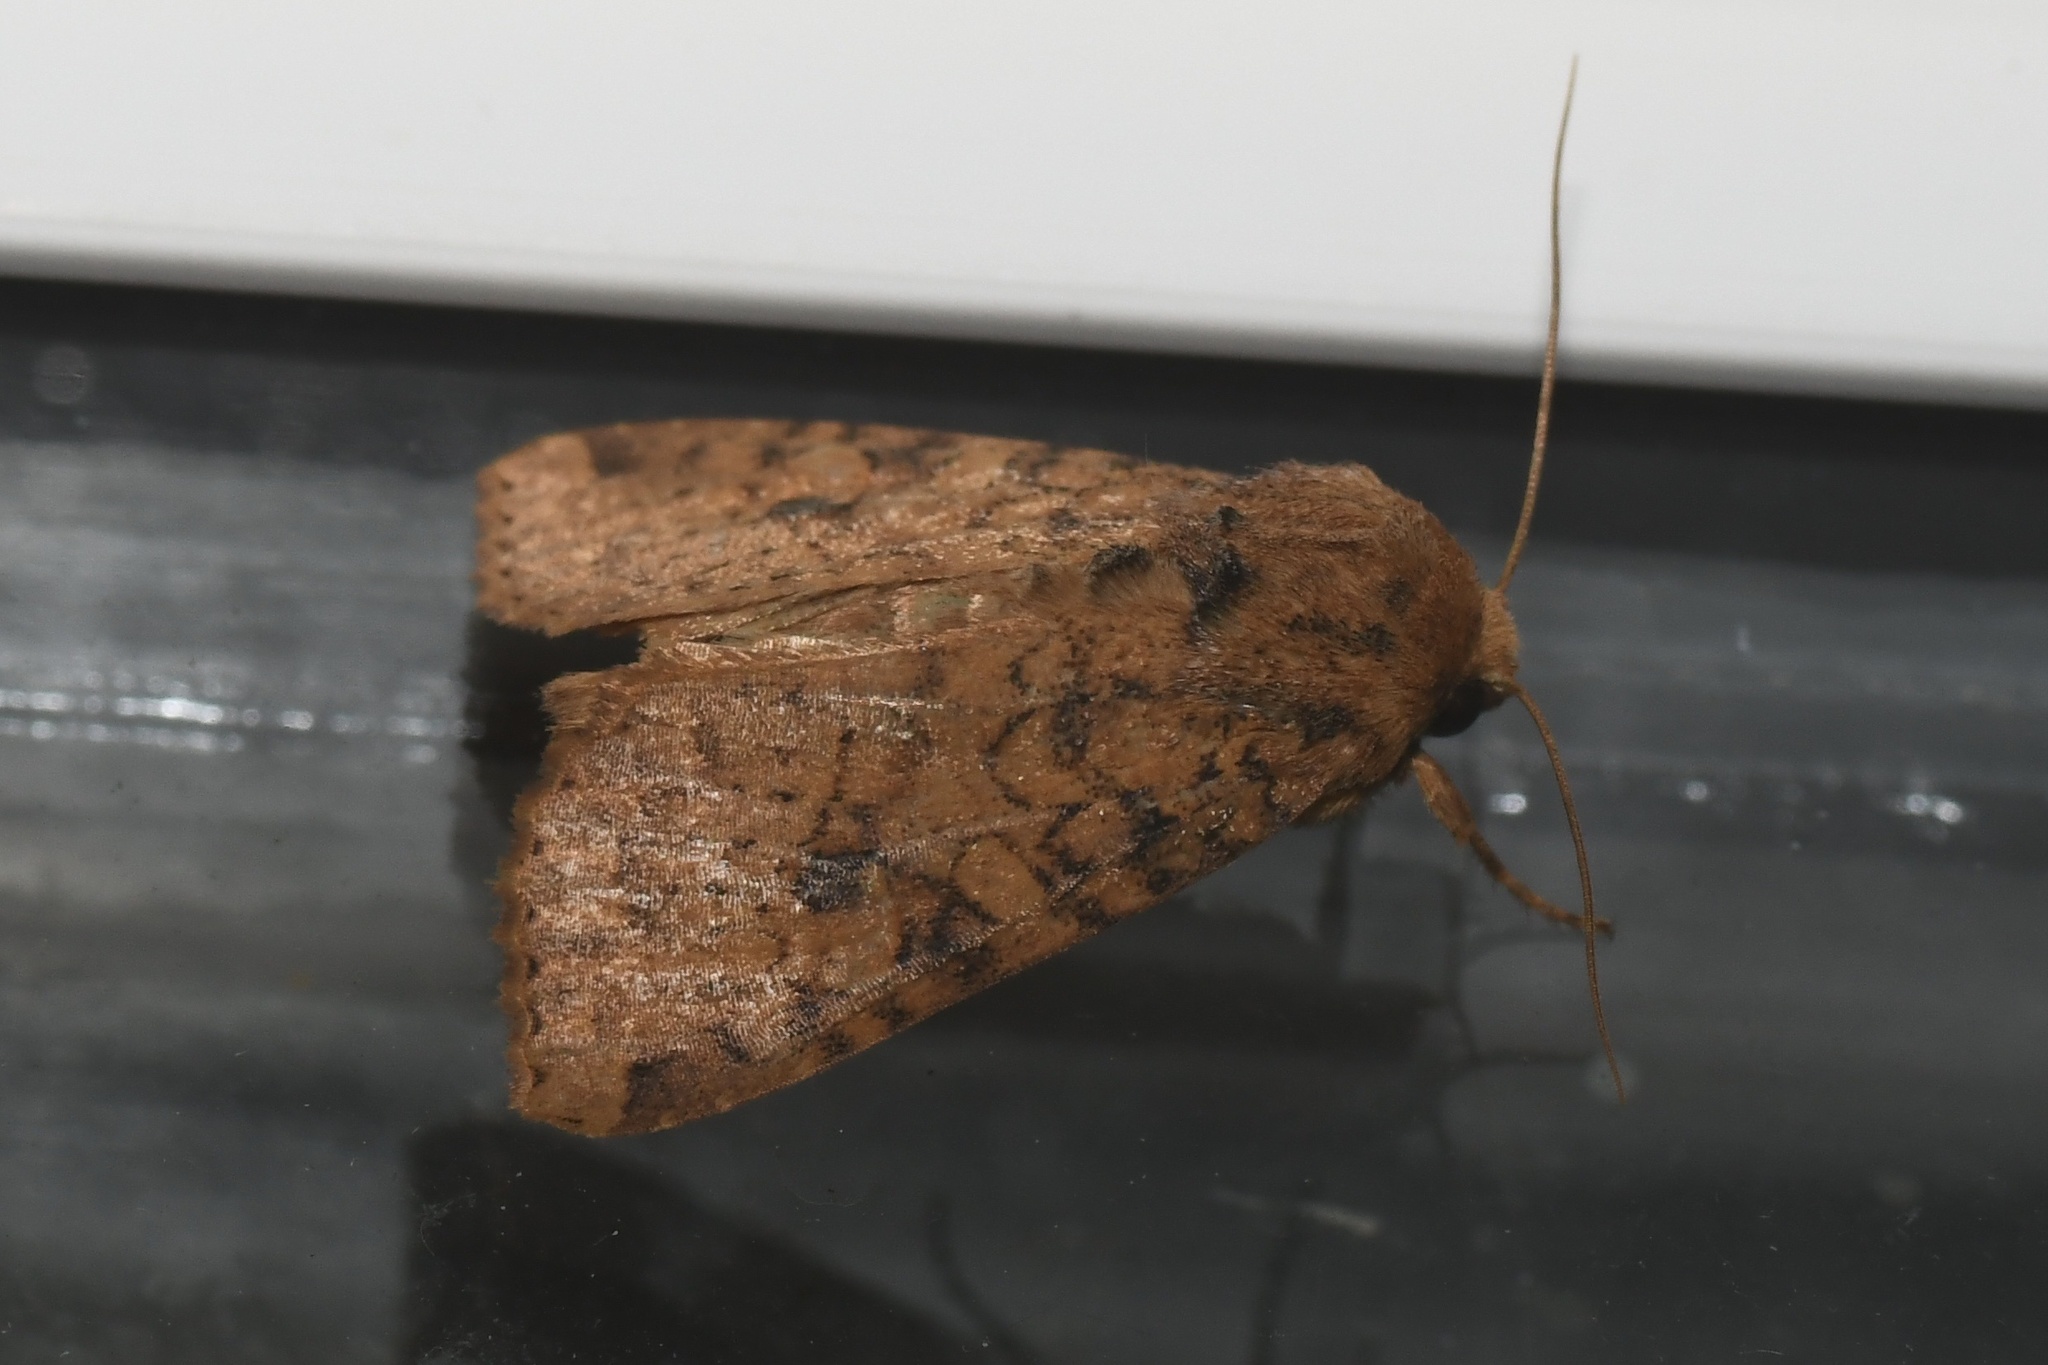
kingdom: Animalia
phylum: Arthropoda
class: Insecta
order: Lepidoptera
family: Noctuidae
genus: Apamea
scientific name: Apamea helva
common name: Yellow three-spot
